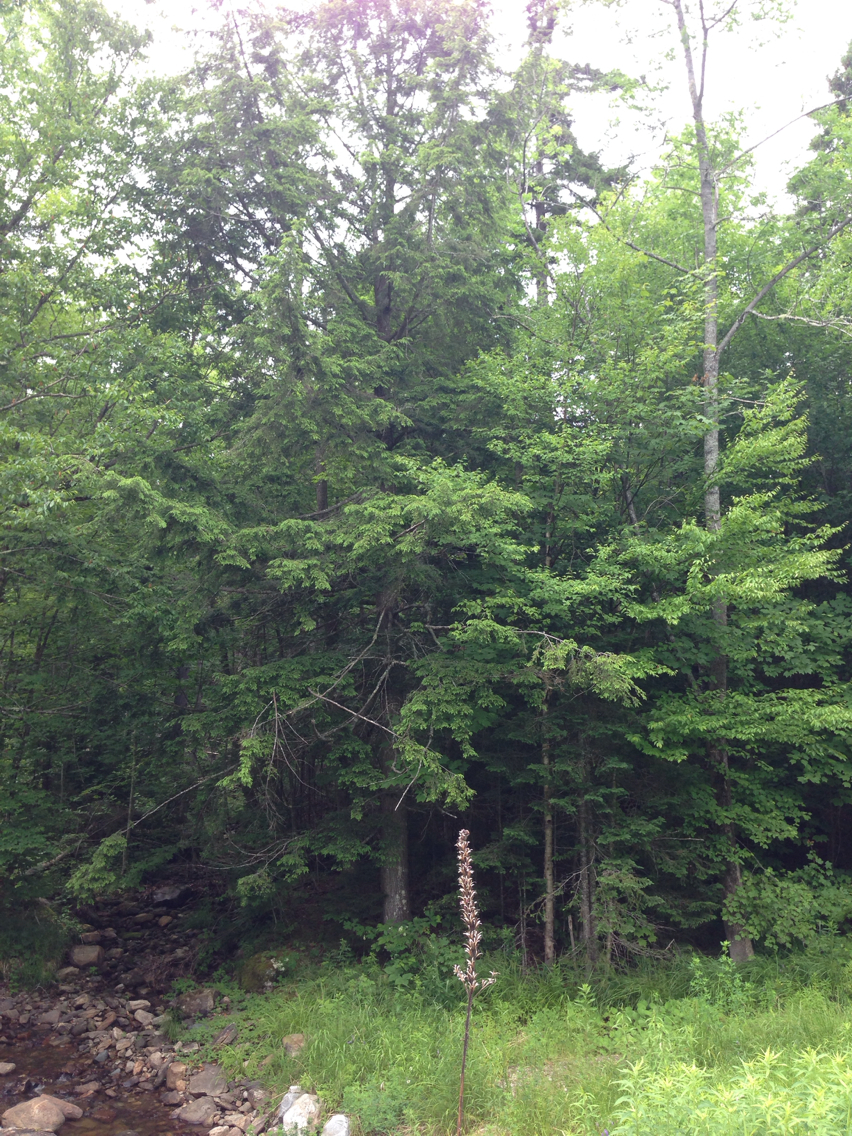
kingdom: Plantae
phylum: Tracheophyta
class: Pinopsida
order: Pinales
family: Pinaceae
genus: Tsuga
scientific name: Tsuga canadensis
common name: Eastern hemlock
